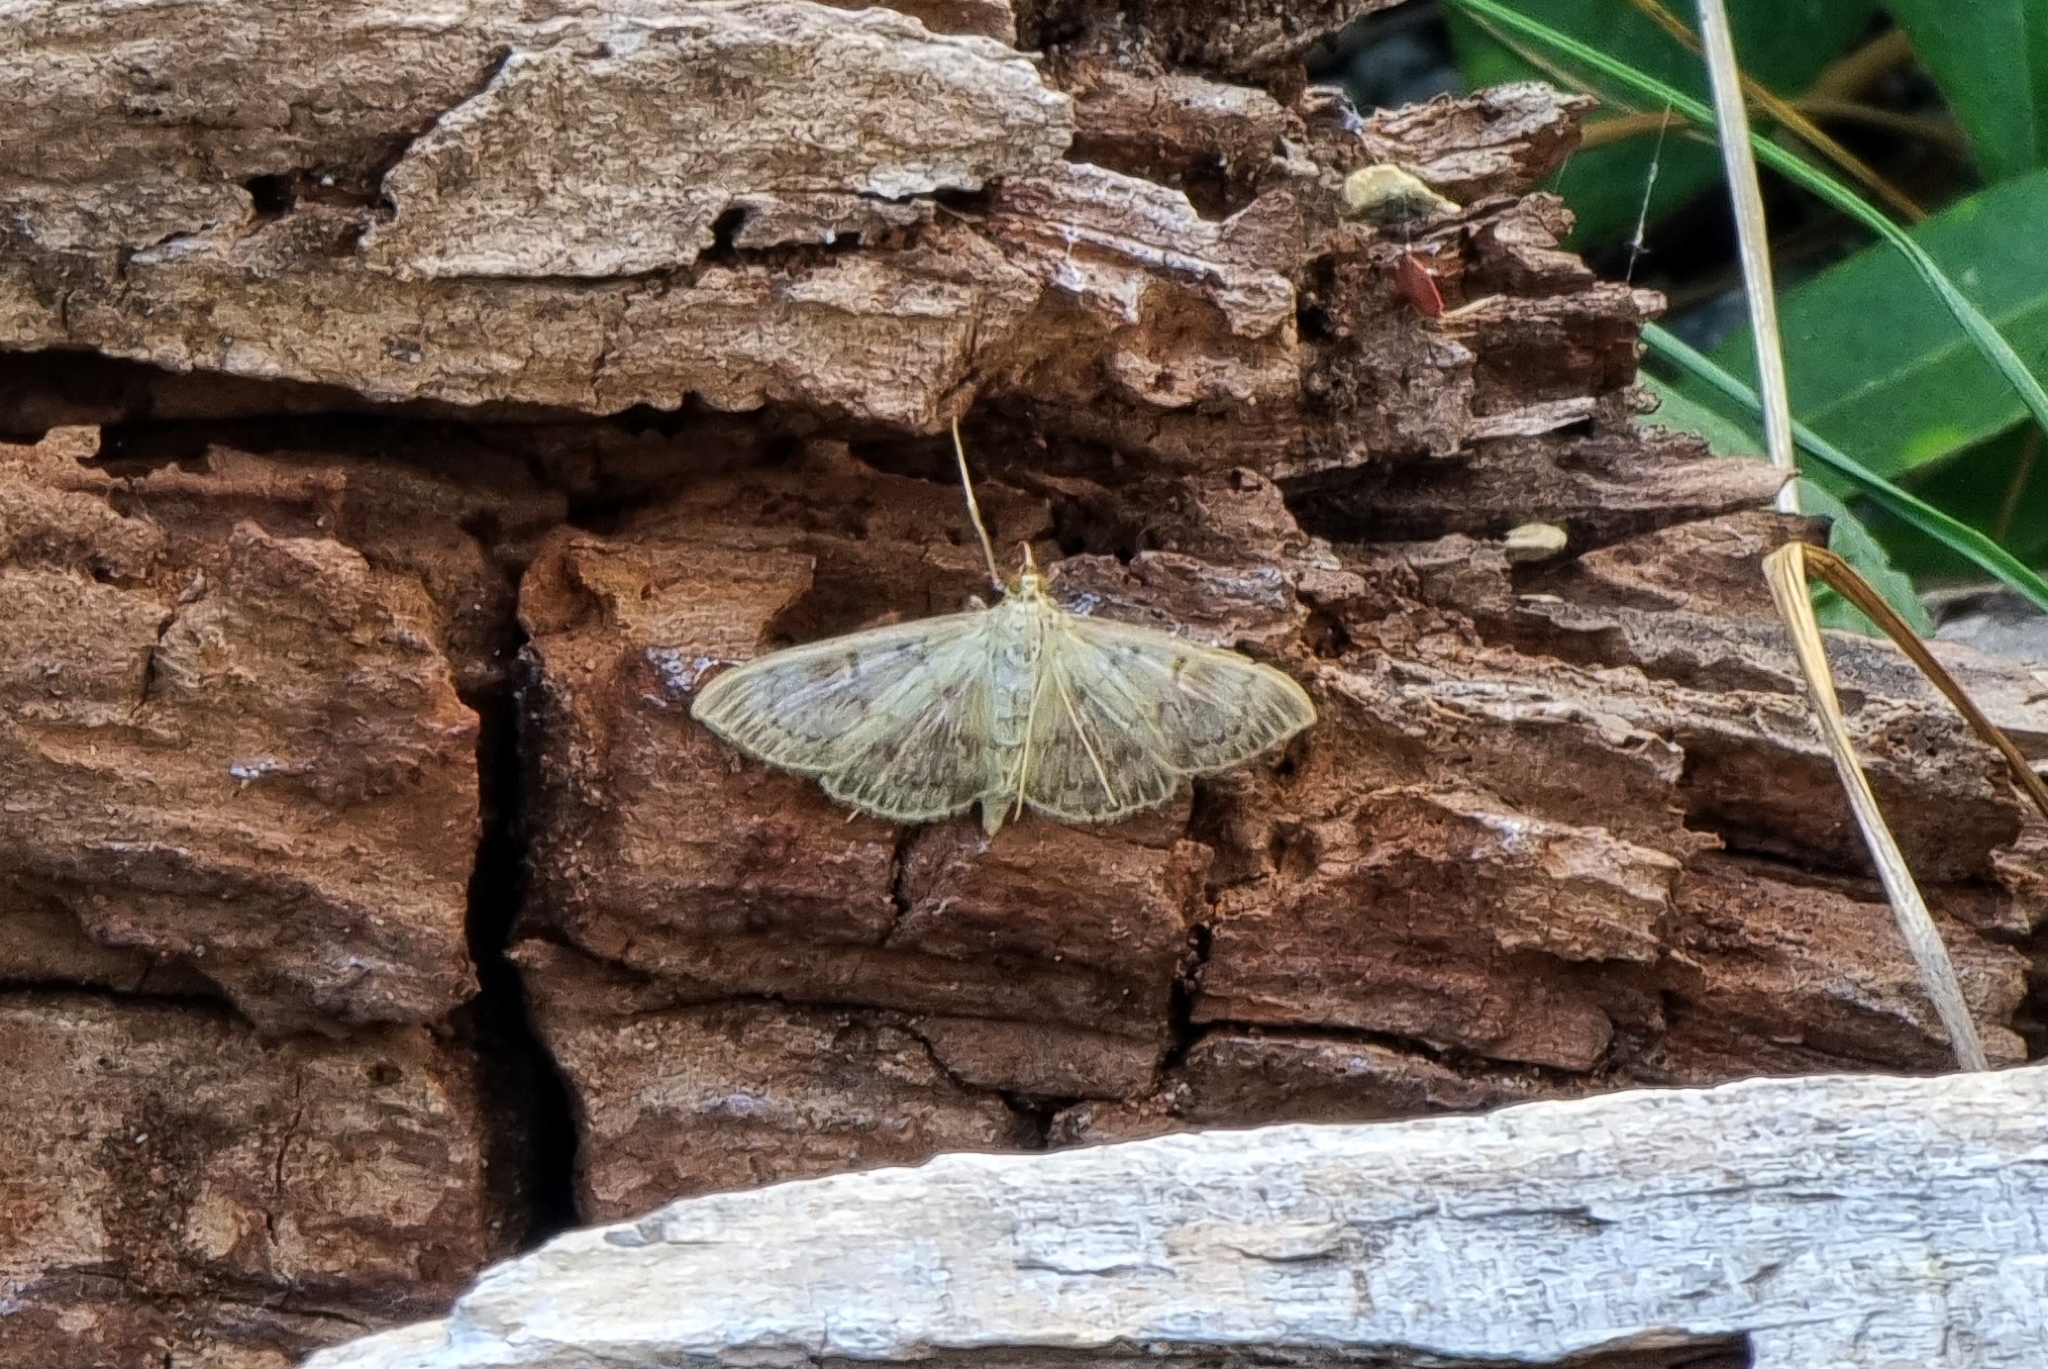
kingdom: Animalia
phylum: Arthropoda
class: Insecta
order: Lepidoptera
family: Crambidae
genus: Patania
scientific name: Patania ruralis
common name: Mother of pearl
